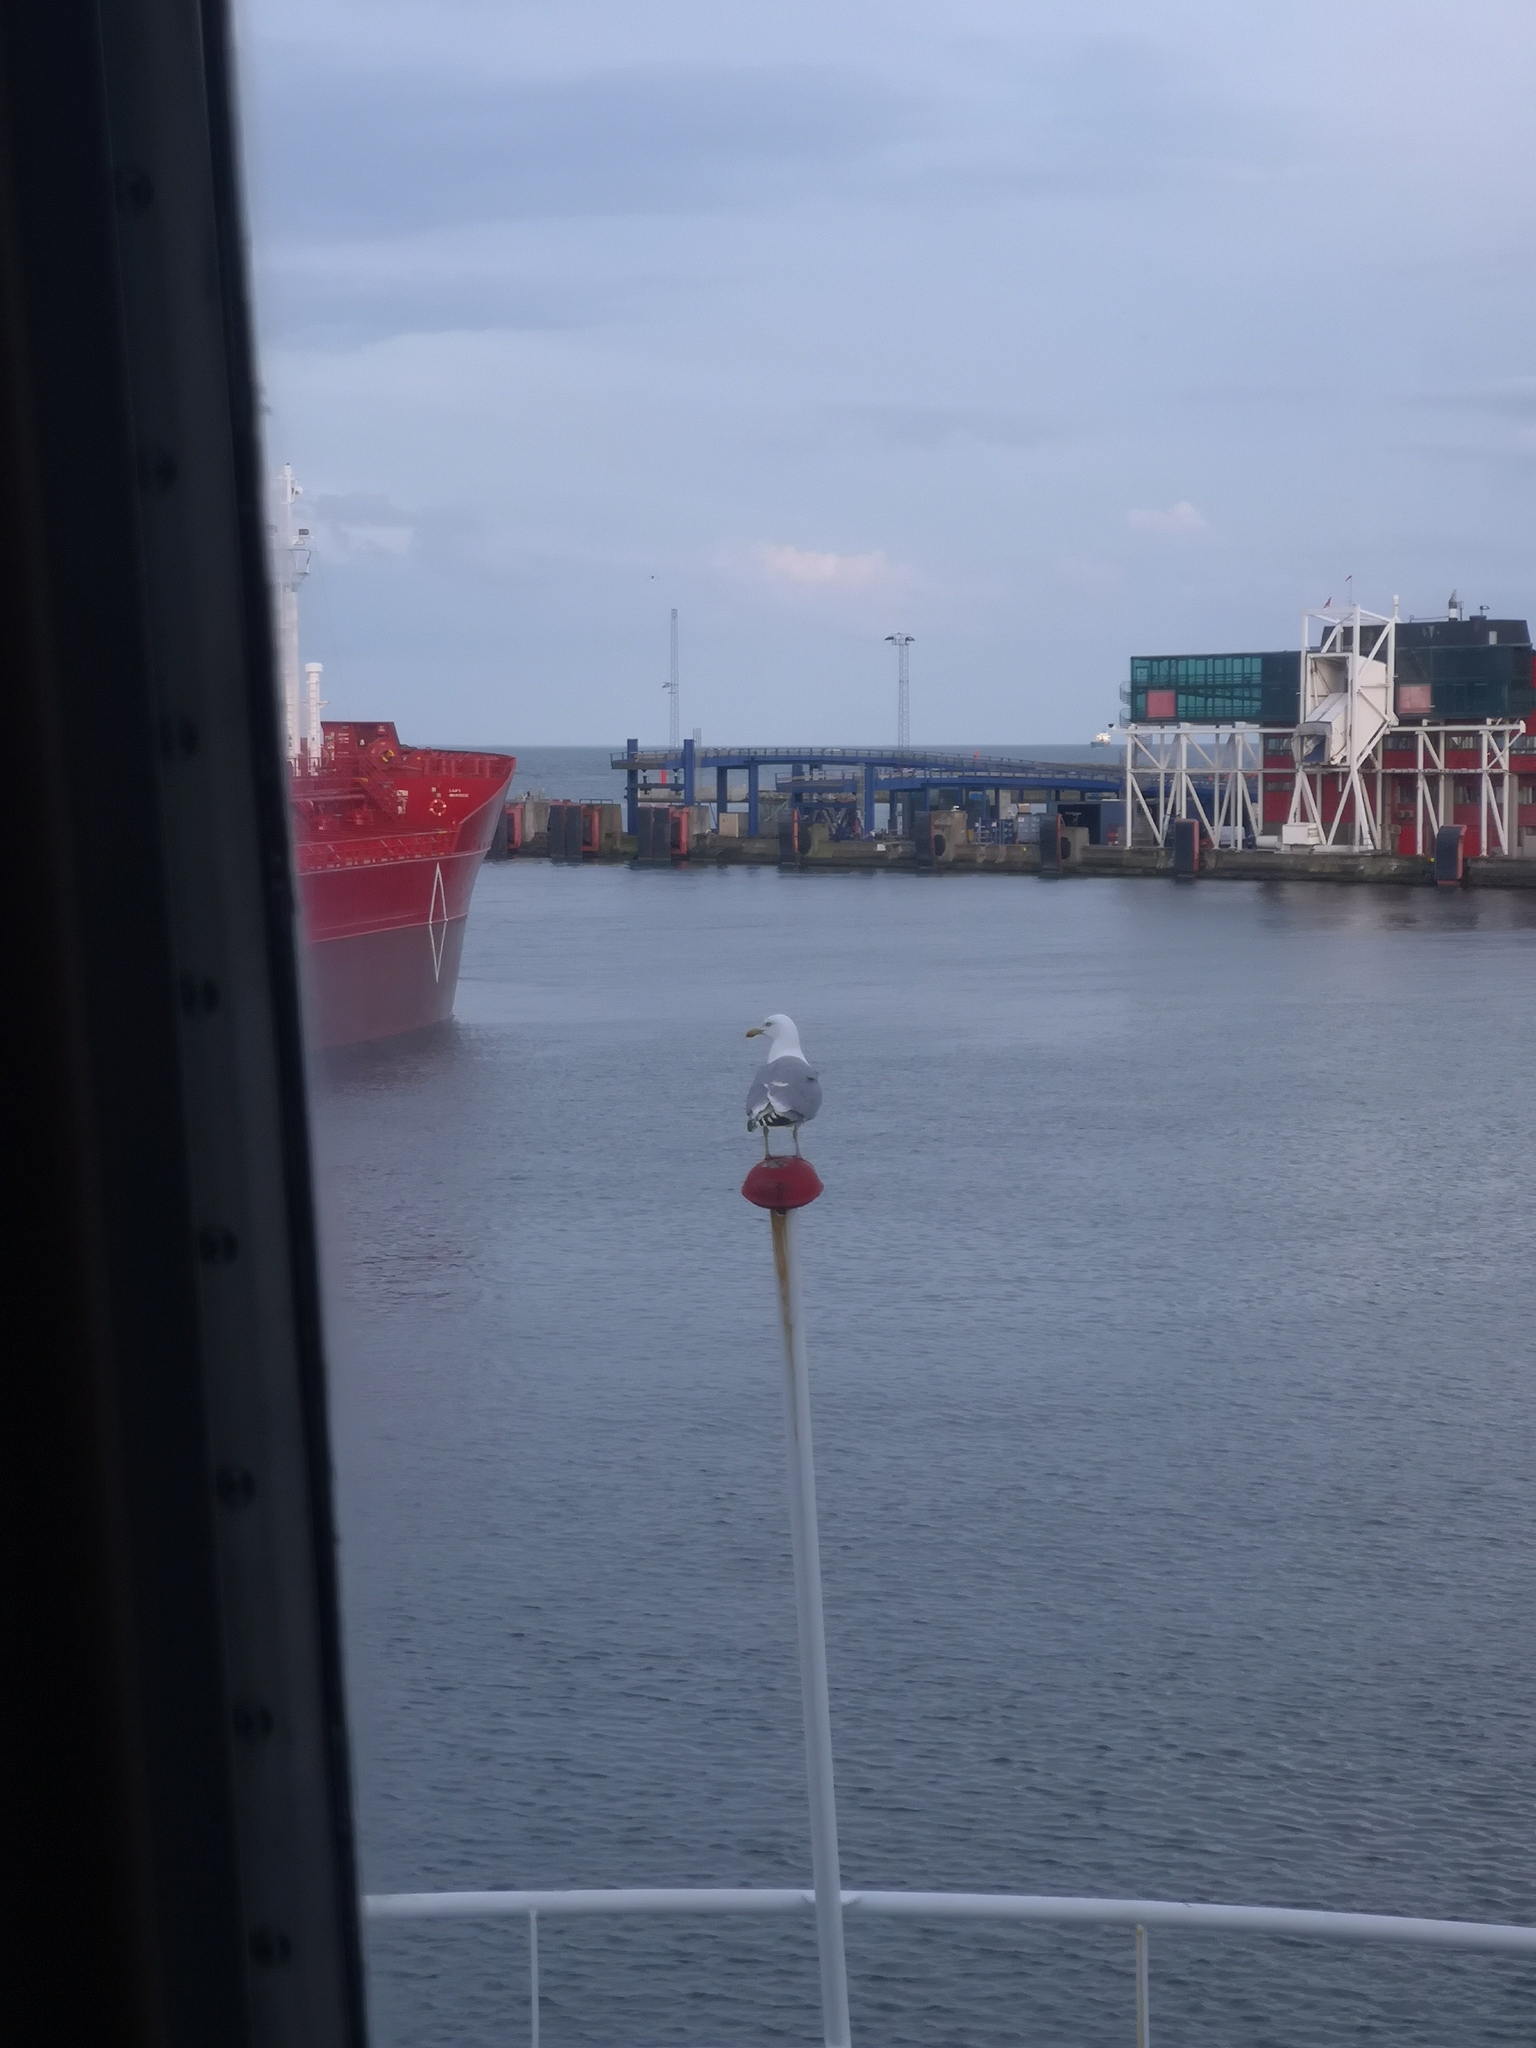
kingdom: Animalia
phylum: Chordata
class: Aves
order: Charadriiformes
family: Laridae
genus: Larus
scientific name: Larus argentatus
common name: Herring gull
